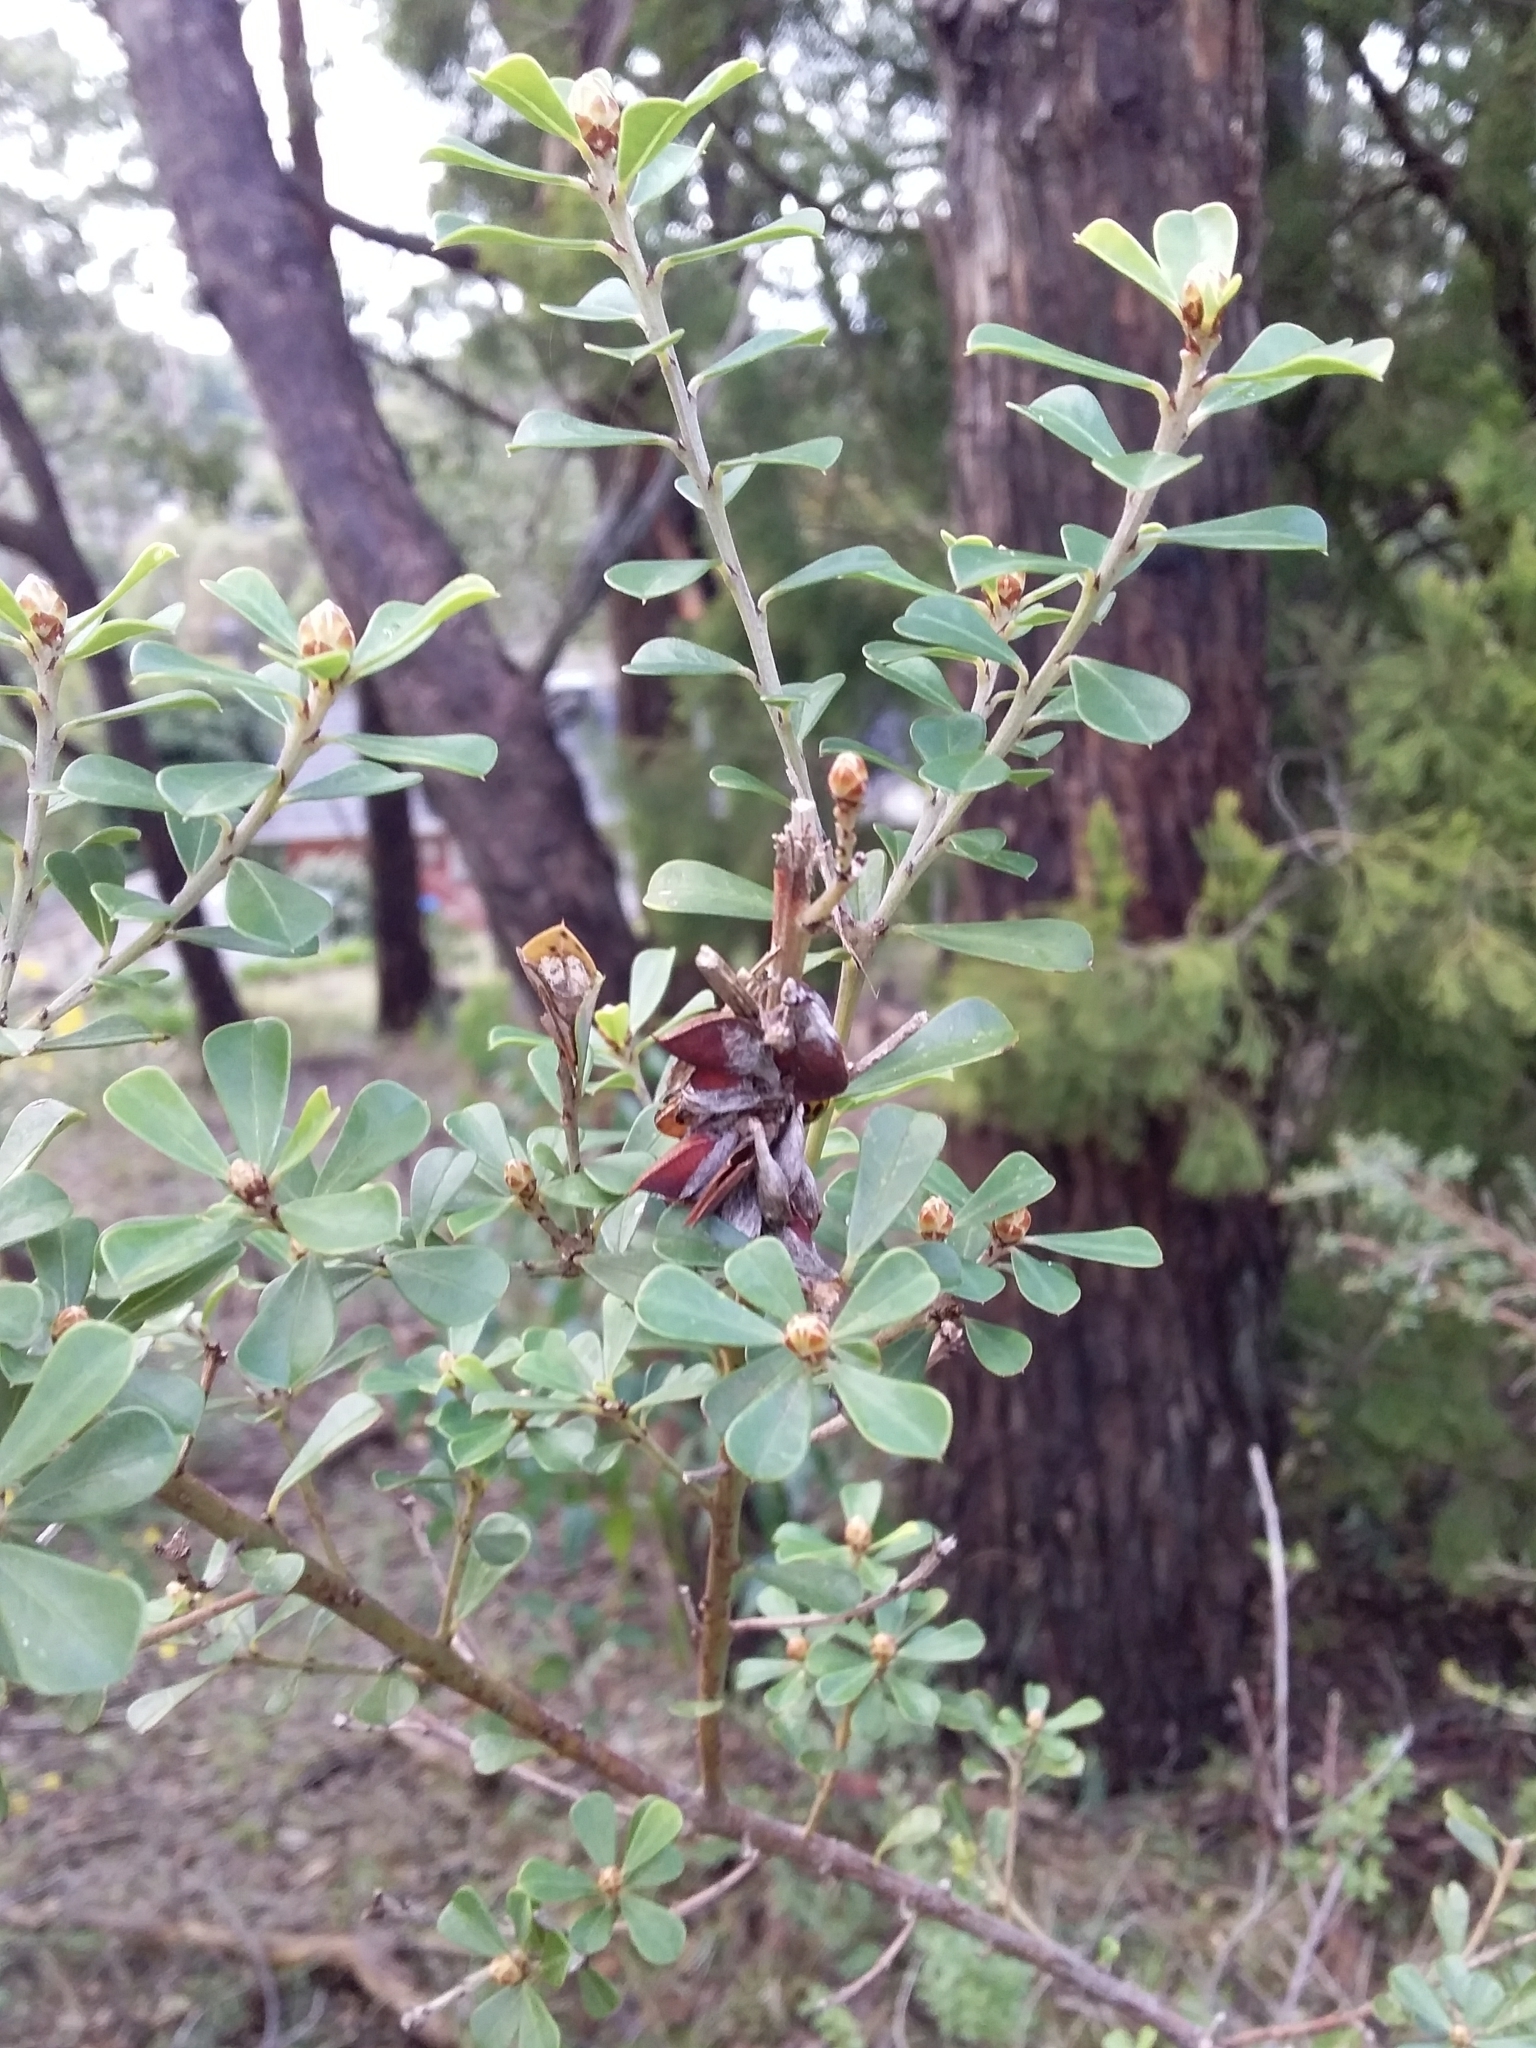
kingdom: Plantae
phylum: Tracheophyta
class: Magnoliopsida
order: Fabales
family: Fabaceae
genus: Pultenaea
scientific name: Pultenaea daphnoides
